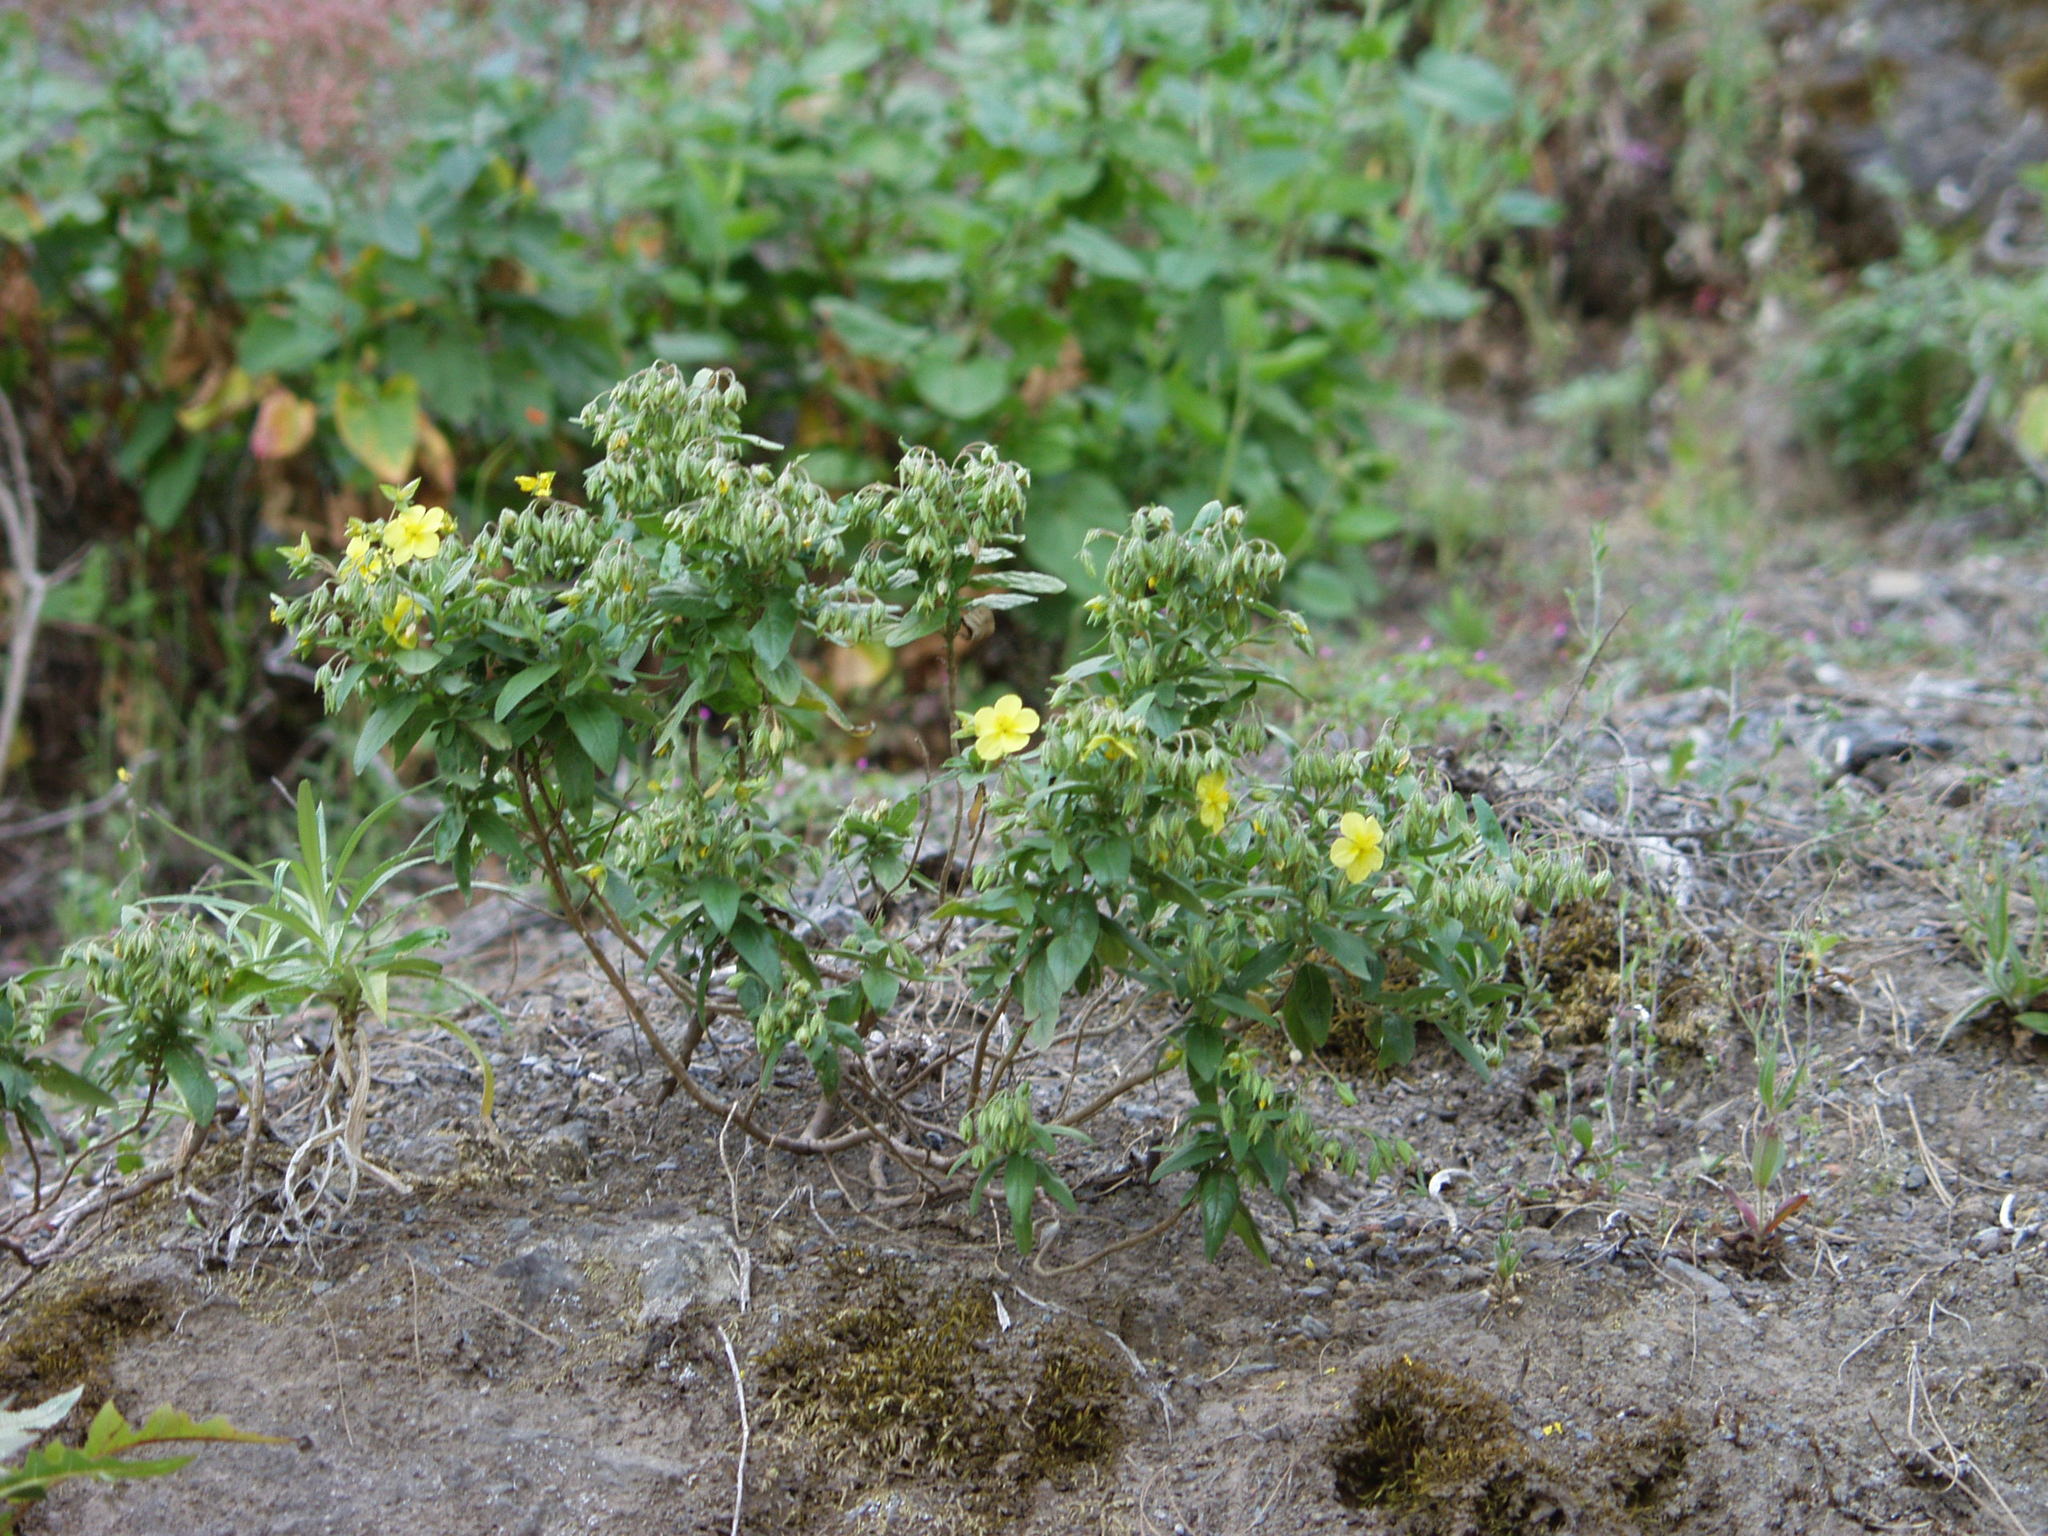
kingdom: Plantae
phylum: Tracheophyta
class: Magnoliopsida
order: Malvales
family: Cistaceae
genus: Helianthemum
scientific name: Helianthemum broussonetii
